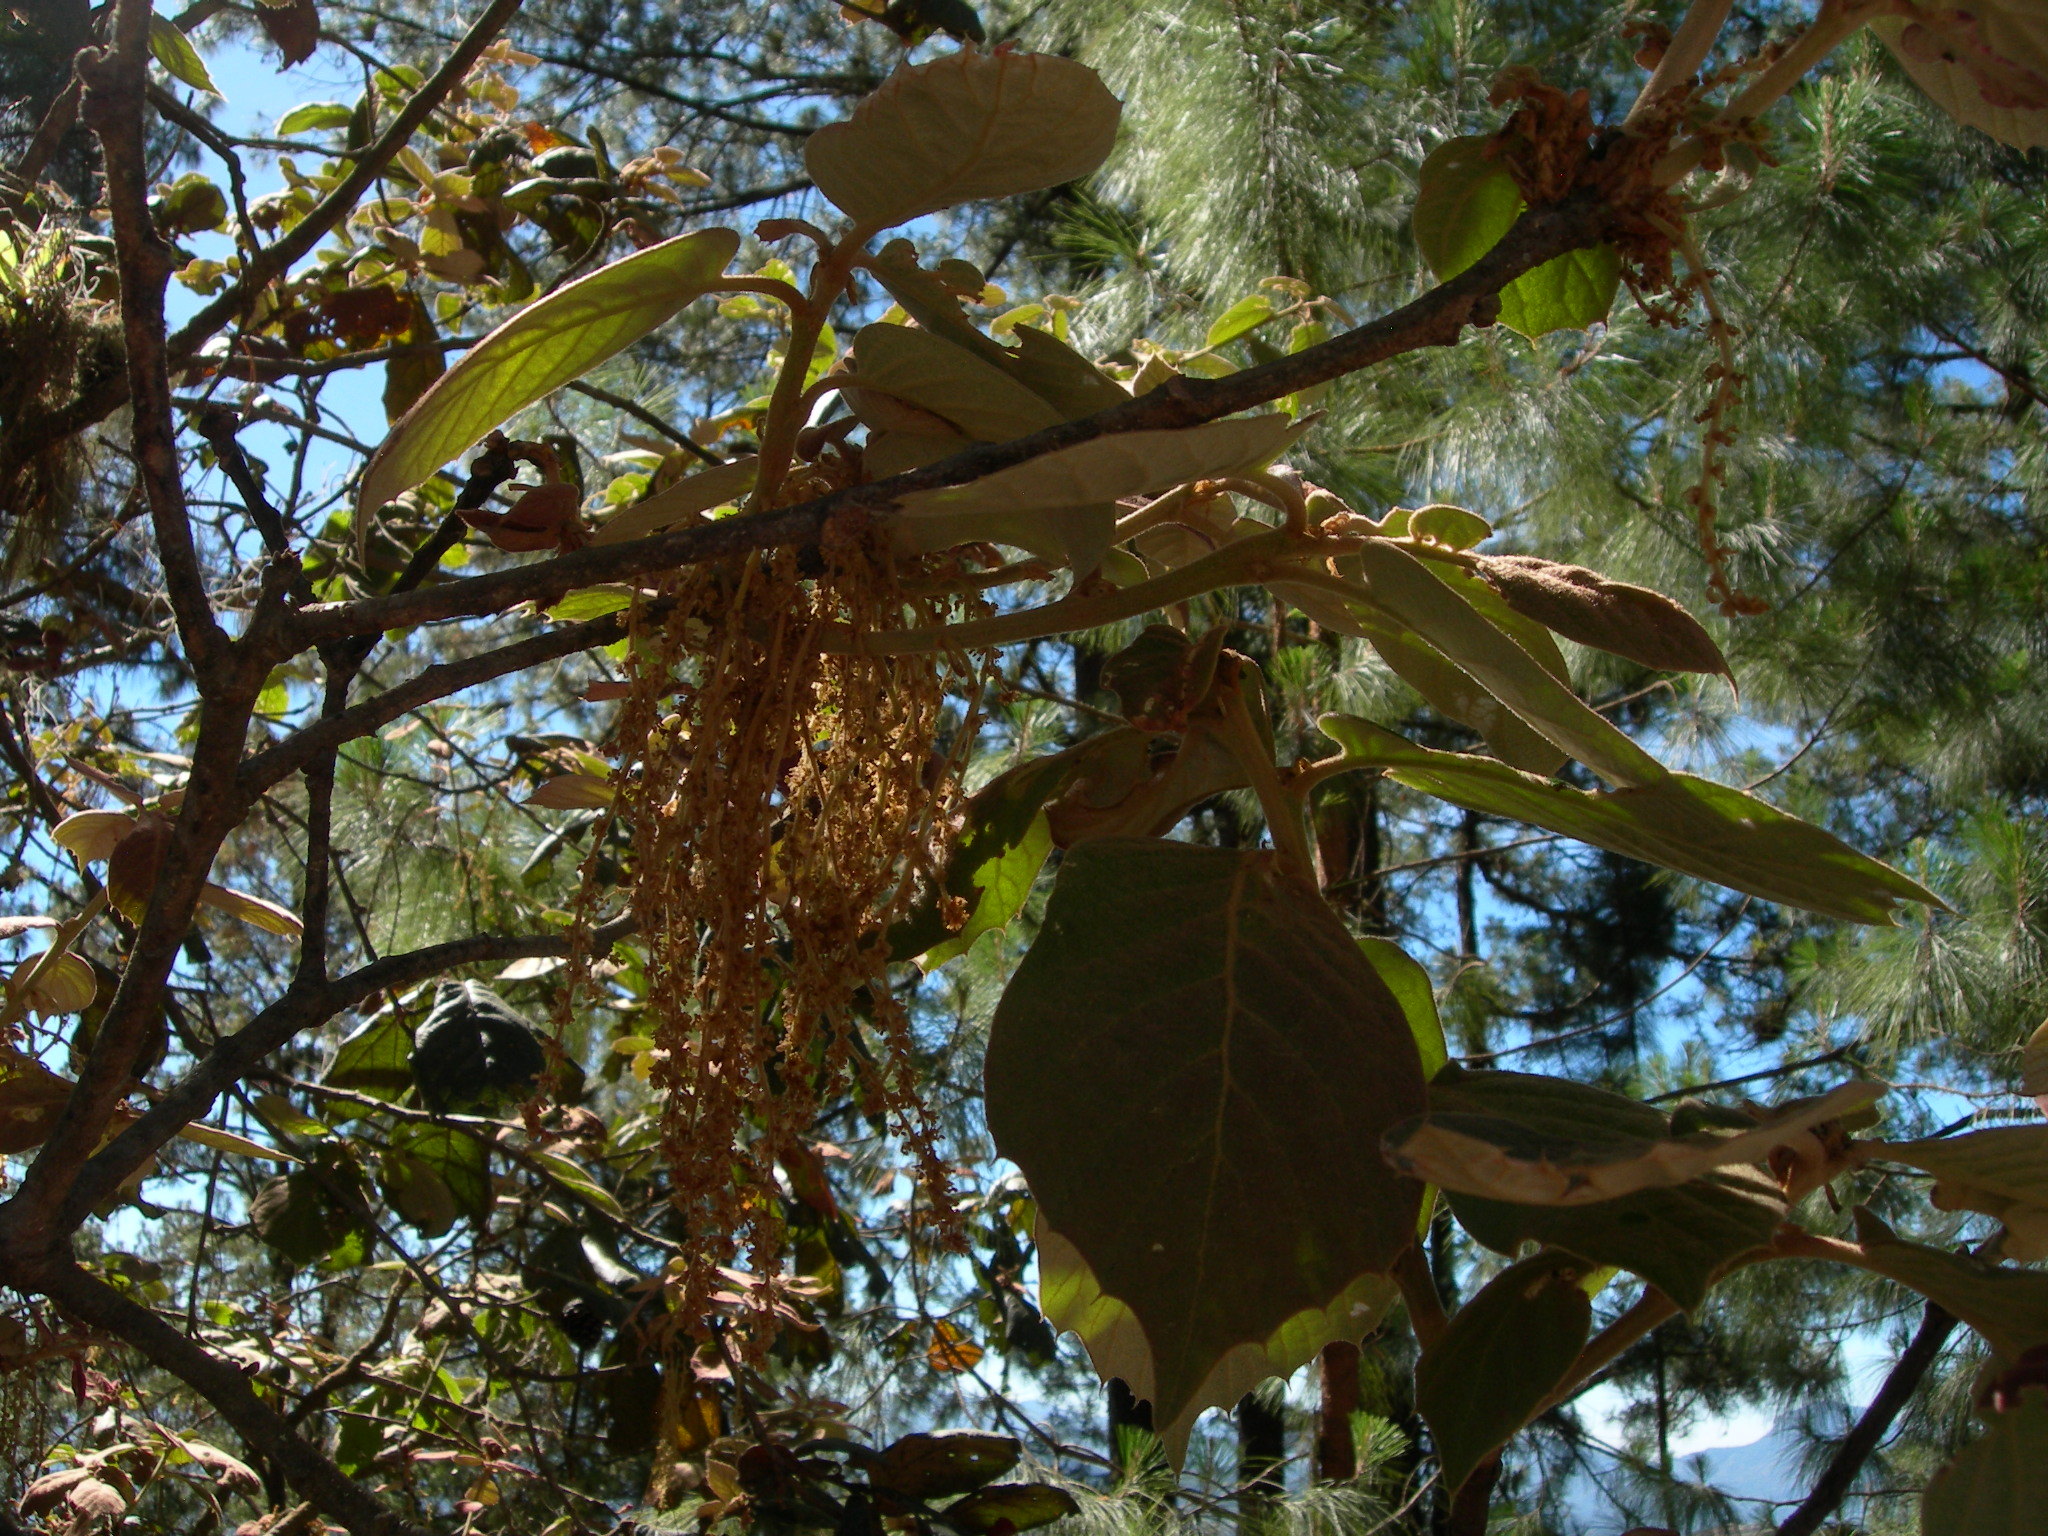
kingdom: Plantae
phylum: Tracheophyta
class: Magnoliopsida
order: Fagales
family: Fagaceae
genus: Quercus
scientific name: Quercus crassifolia
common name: Leather leaf mexican oak
